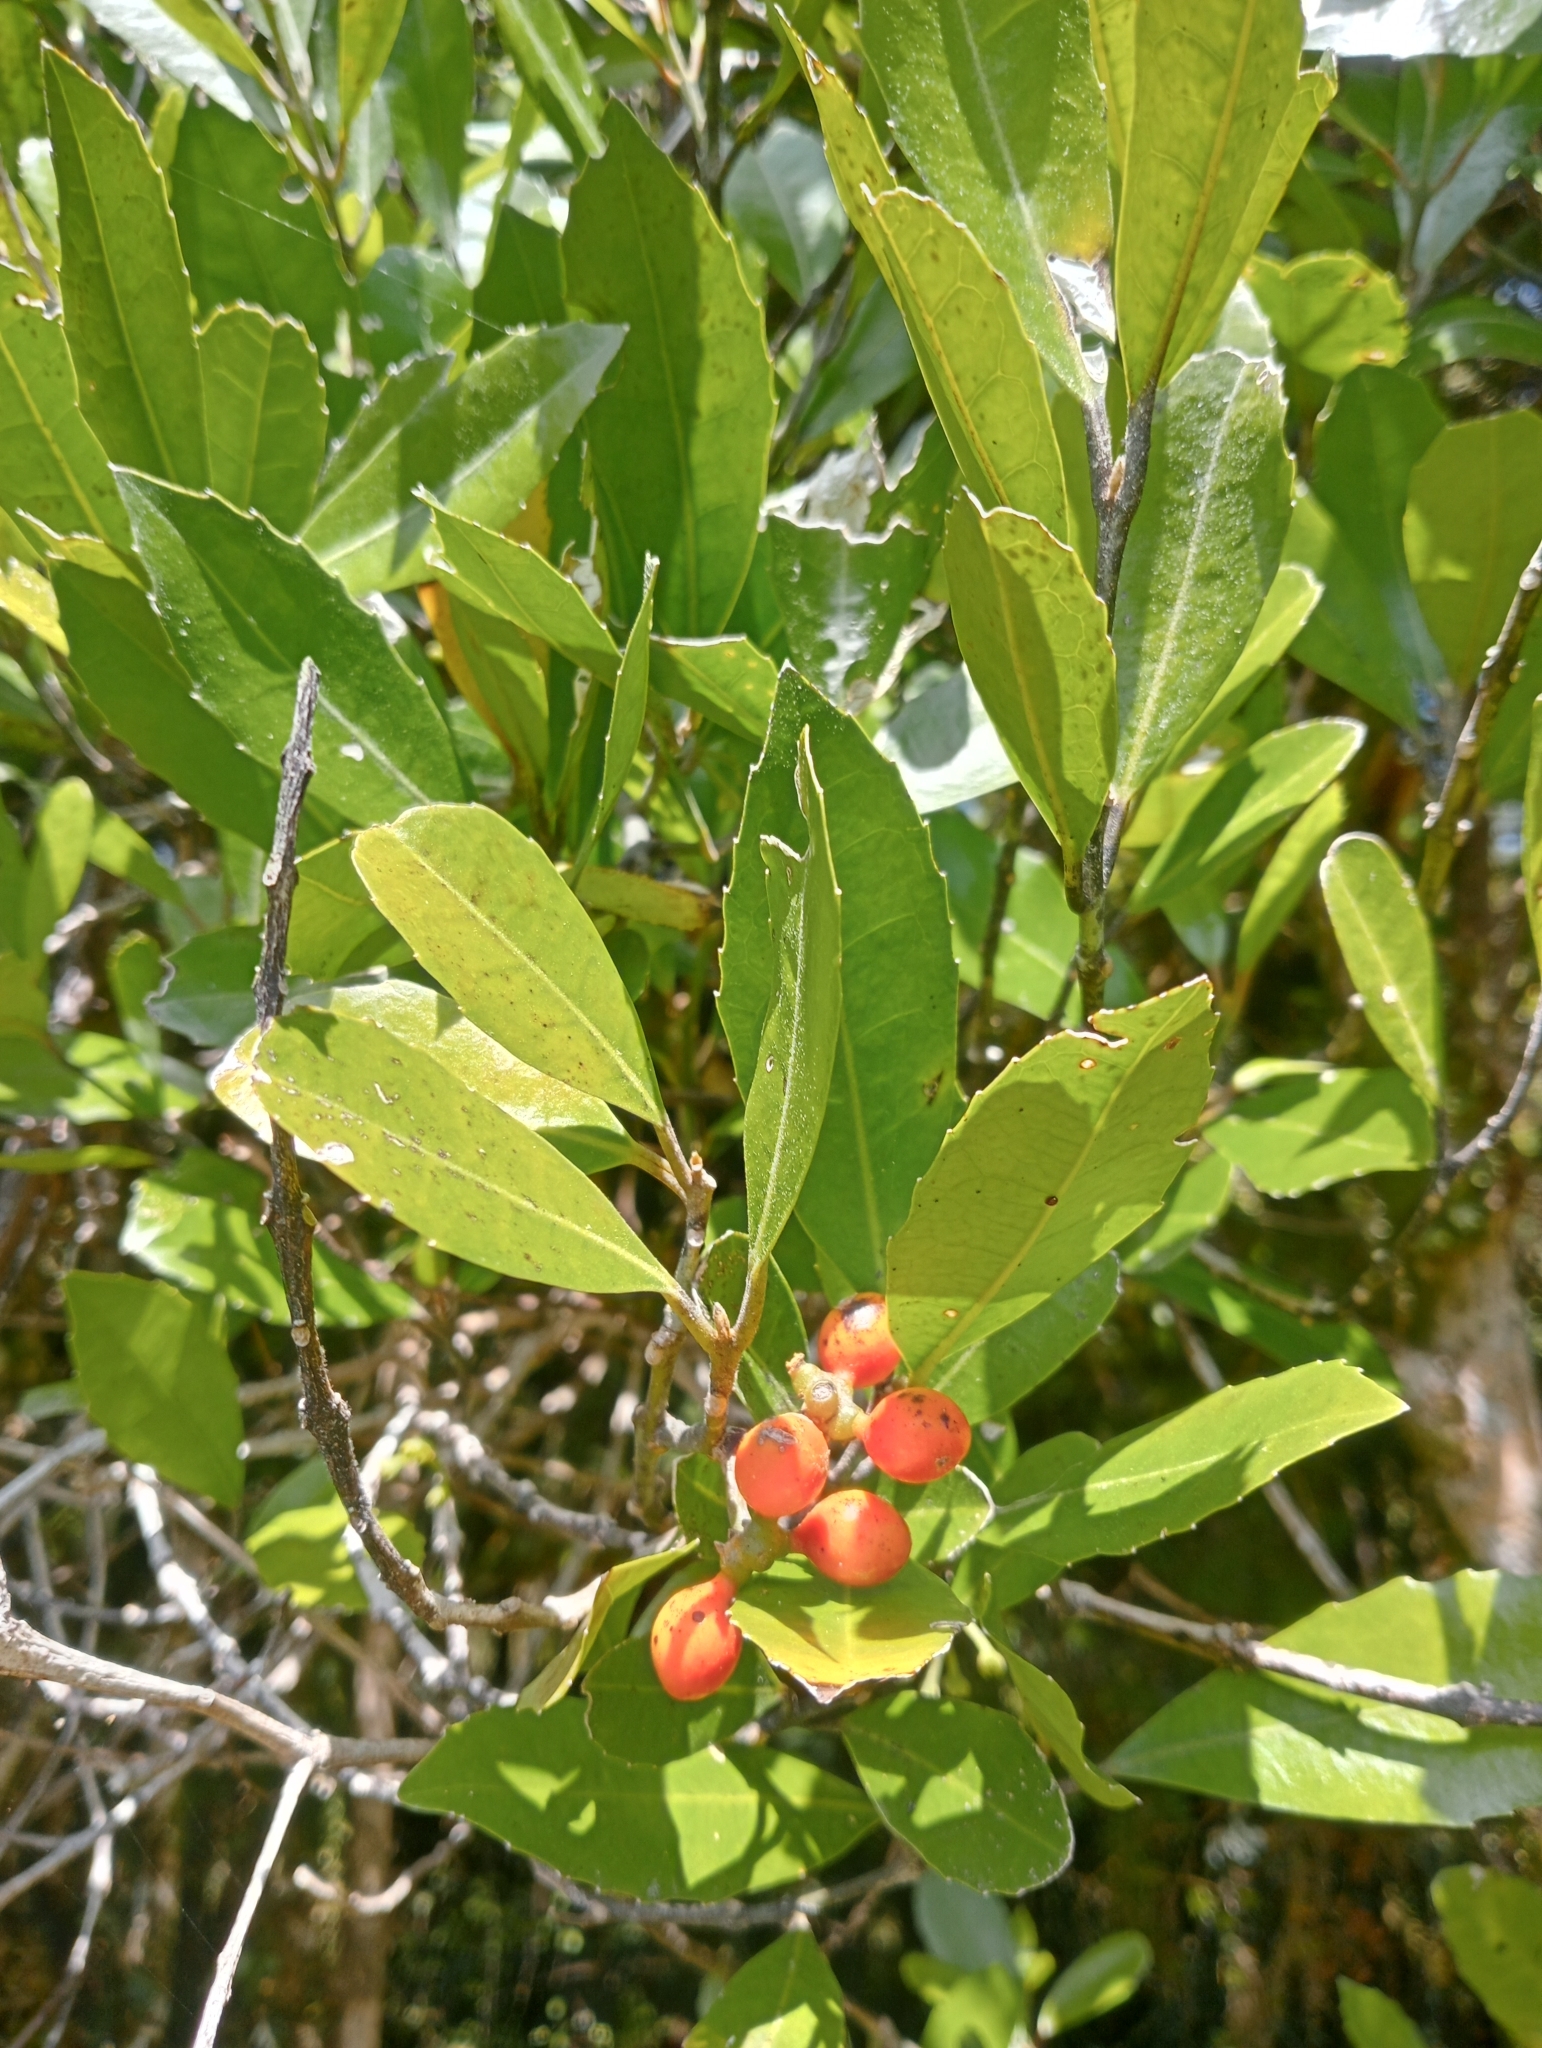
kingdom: Plantae
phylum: Tracheophyta
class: Magnoliopsida
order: Laurales
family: Monimiaceae
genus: Hedycarya
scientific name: Hedycarya arborea
